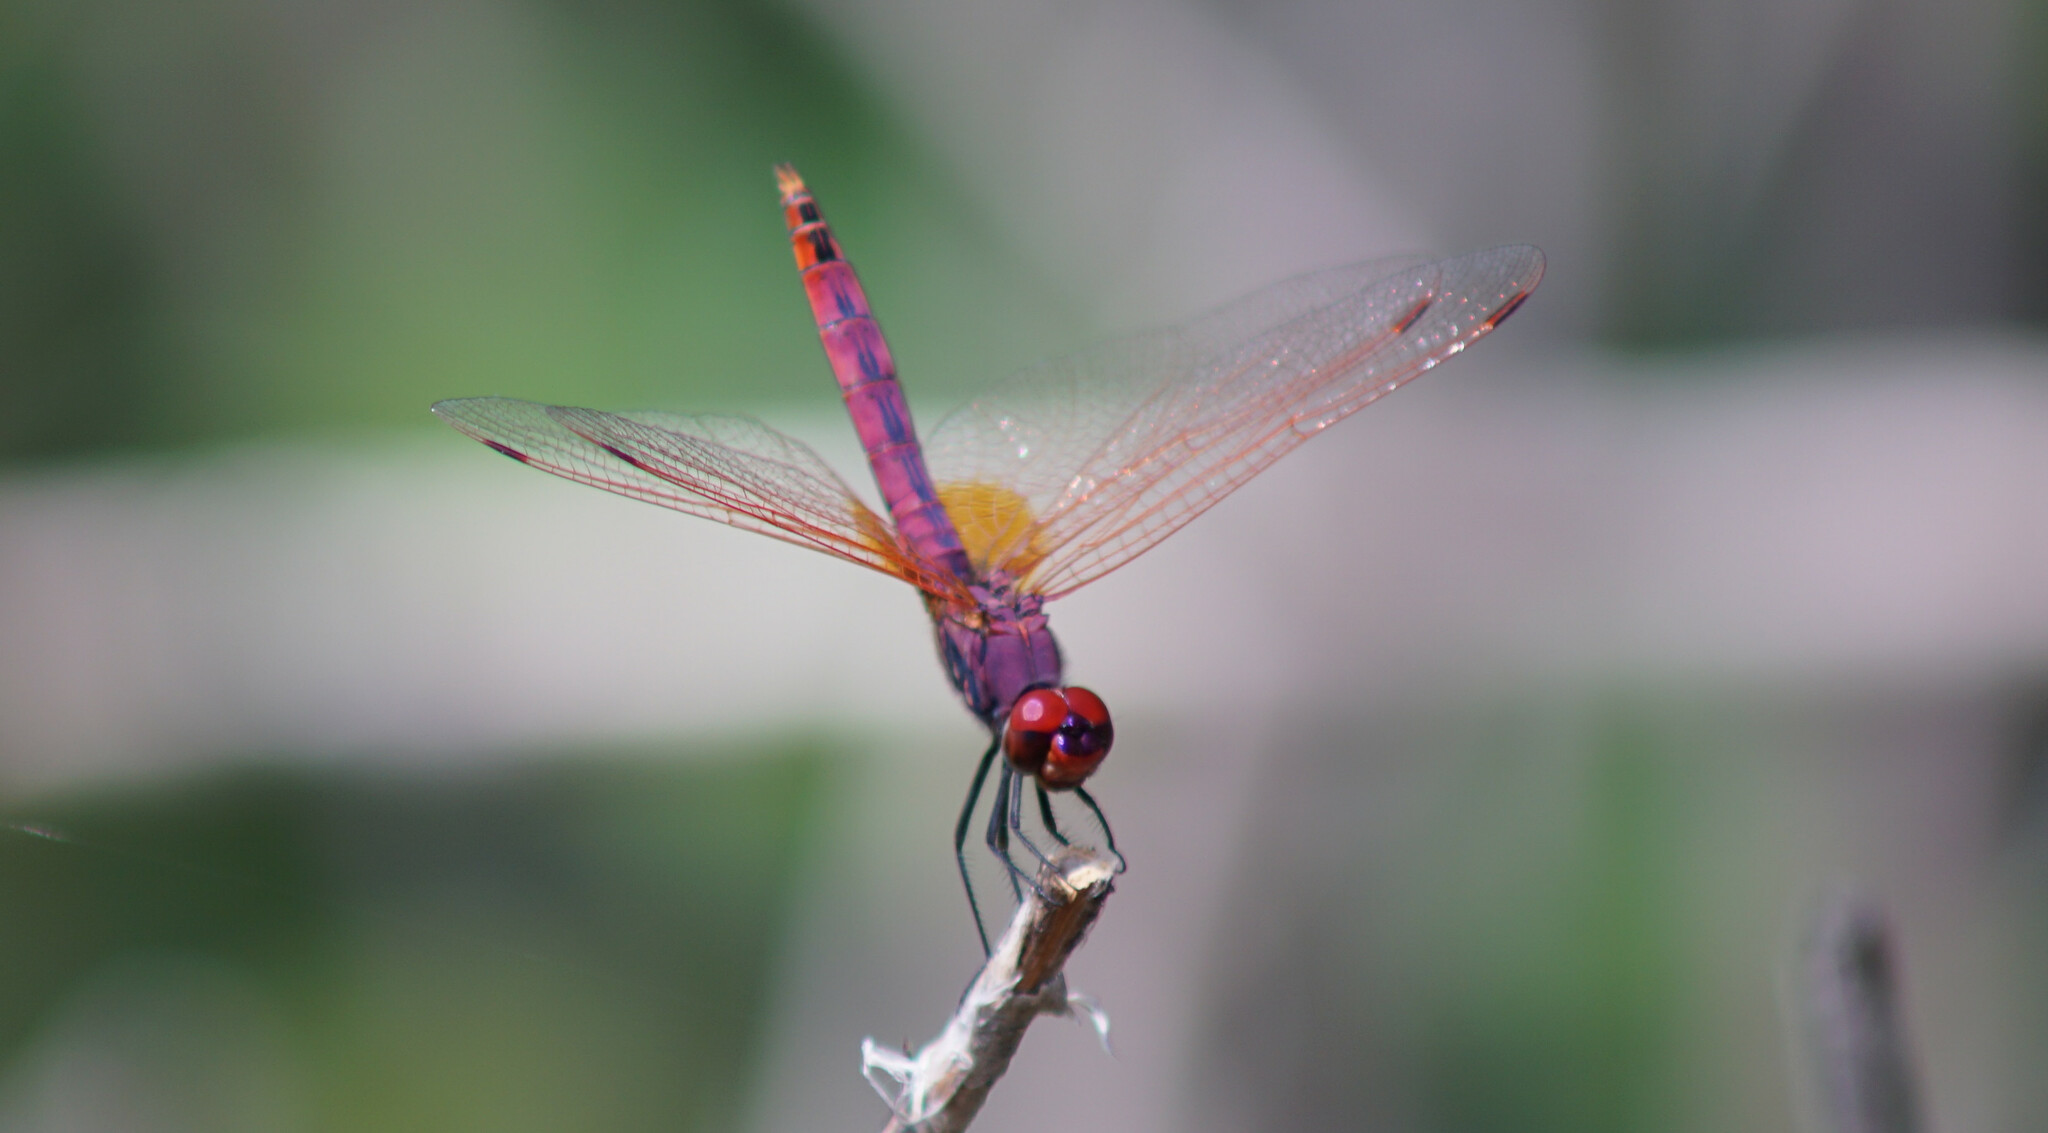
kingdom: Animalia
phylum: Arthropoda
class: Insecta
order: Odonata
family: Libellulidae
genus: Trithemis
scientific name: Trithemis annulata
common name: Violet dropwing
